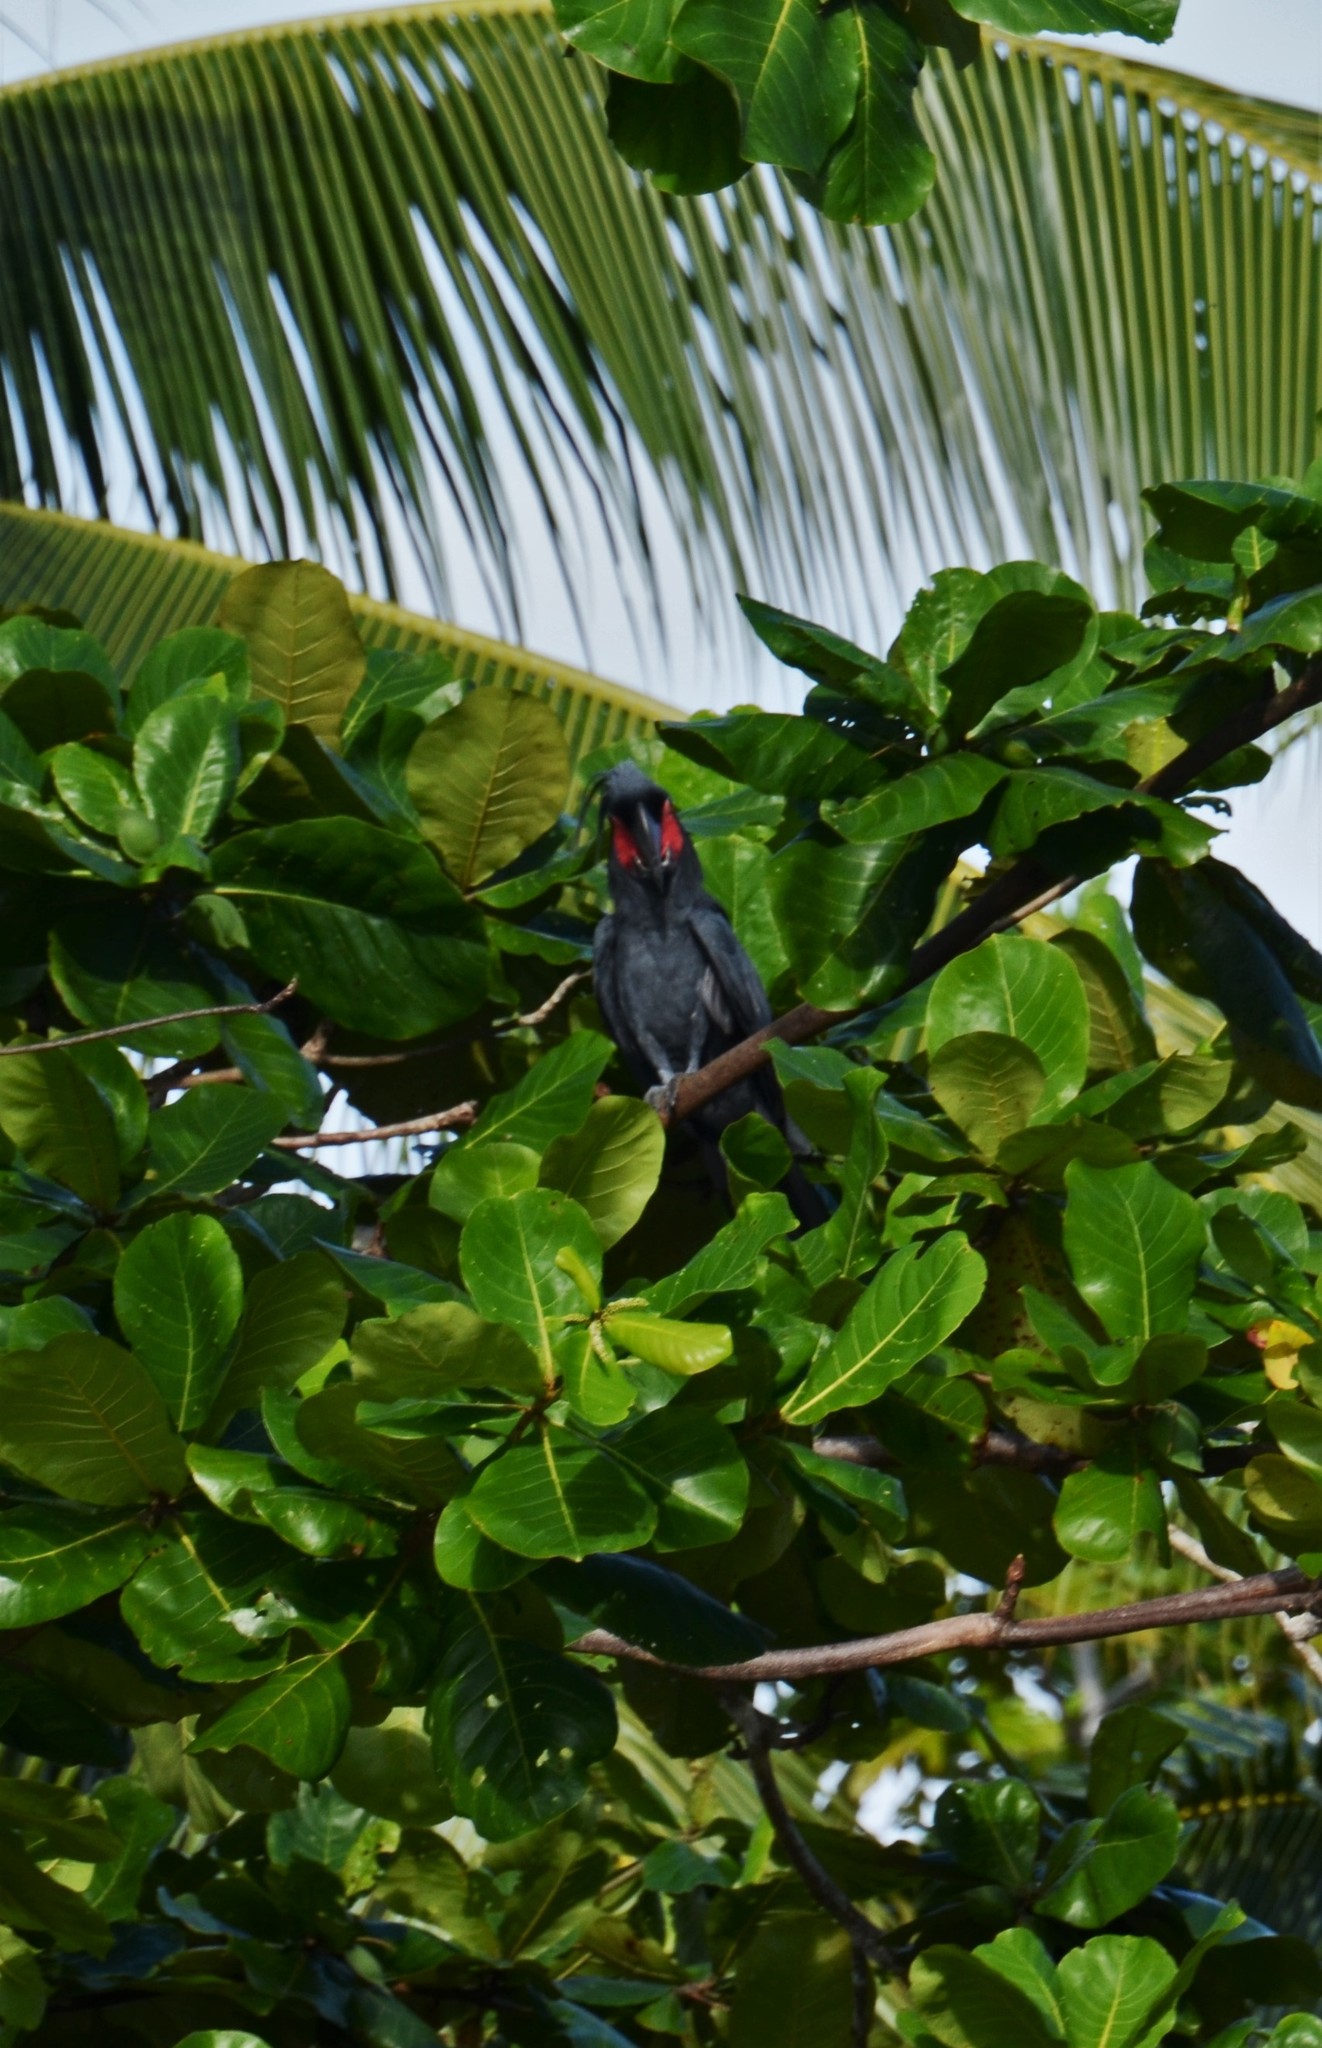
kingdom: Animalia
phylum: Chordata
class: Aves
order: Psittaciformes
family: Psittacidae
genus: Probosciger
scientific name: Probosciger aterrimus
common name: Palm cockatoo
